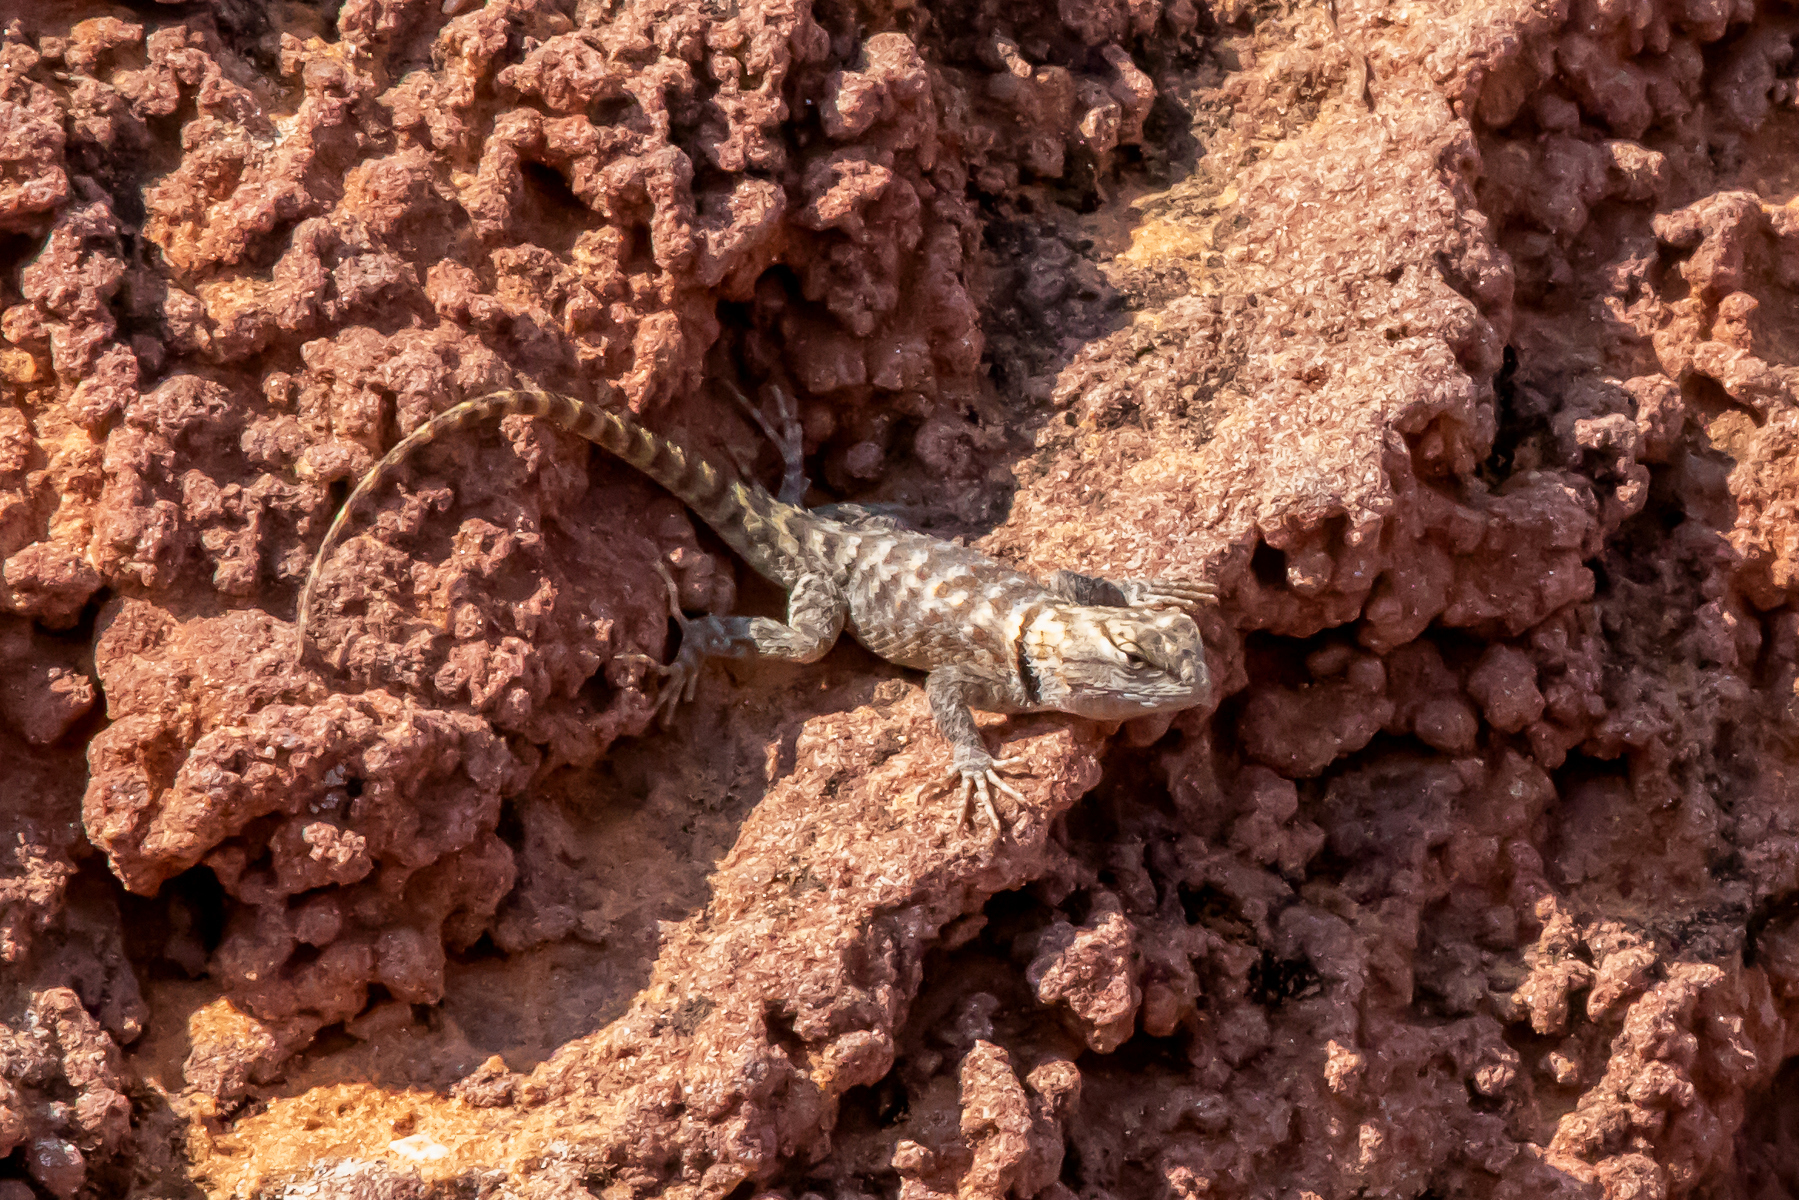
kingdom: Animalia
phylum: Chordata
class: Squamata
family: Phrynosomatidae
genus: Sceloporus
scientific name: Sceloporus magister
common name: Desert spiny lizard
